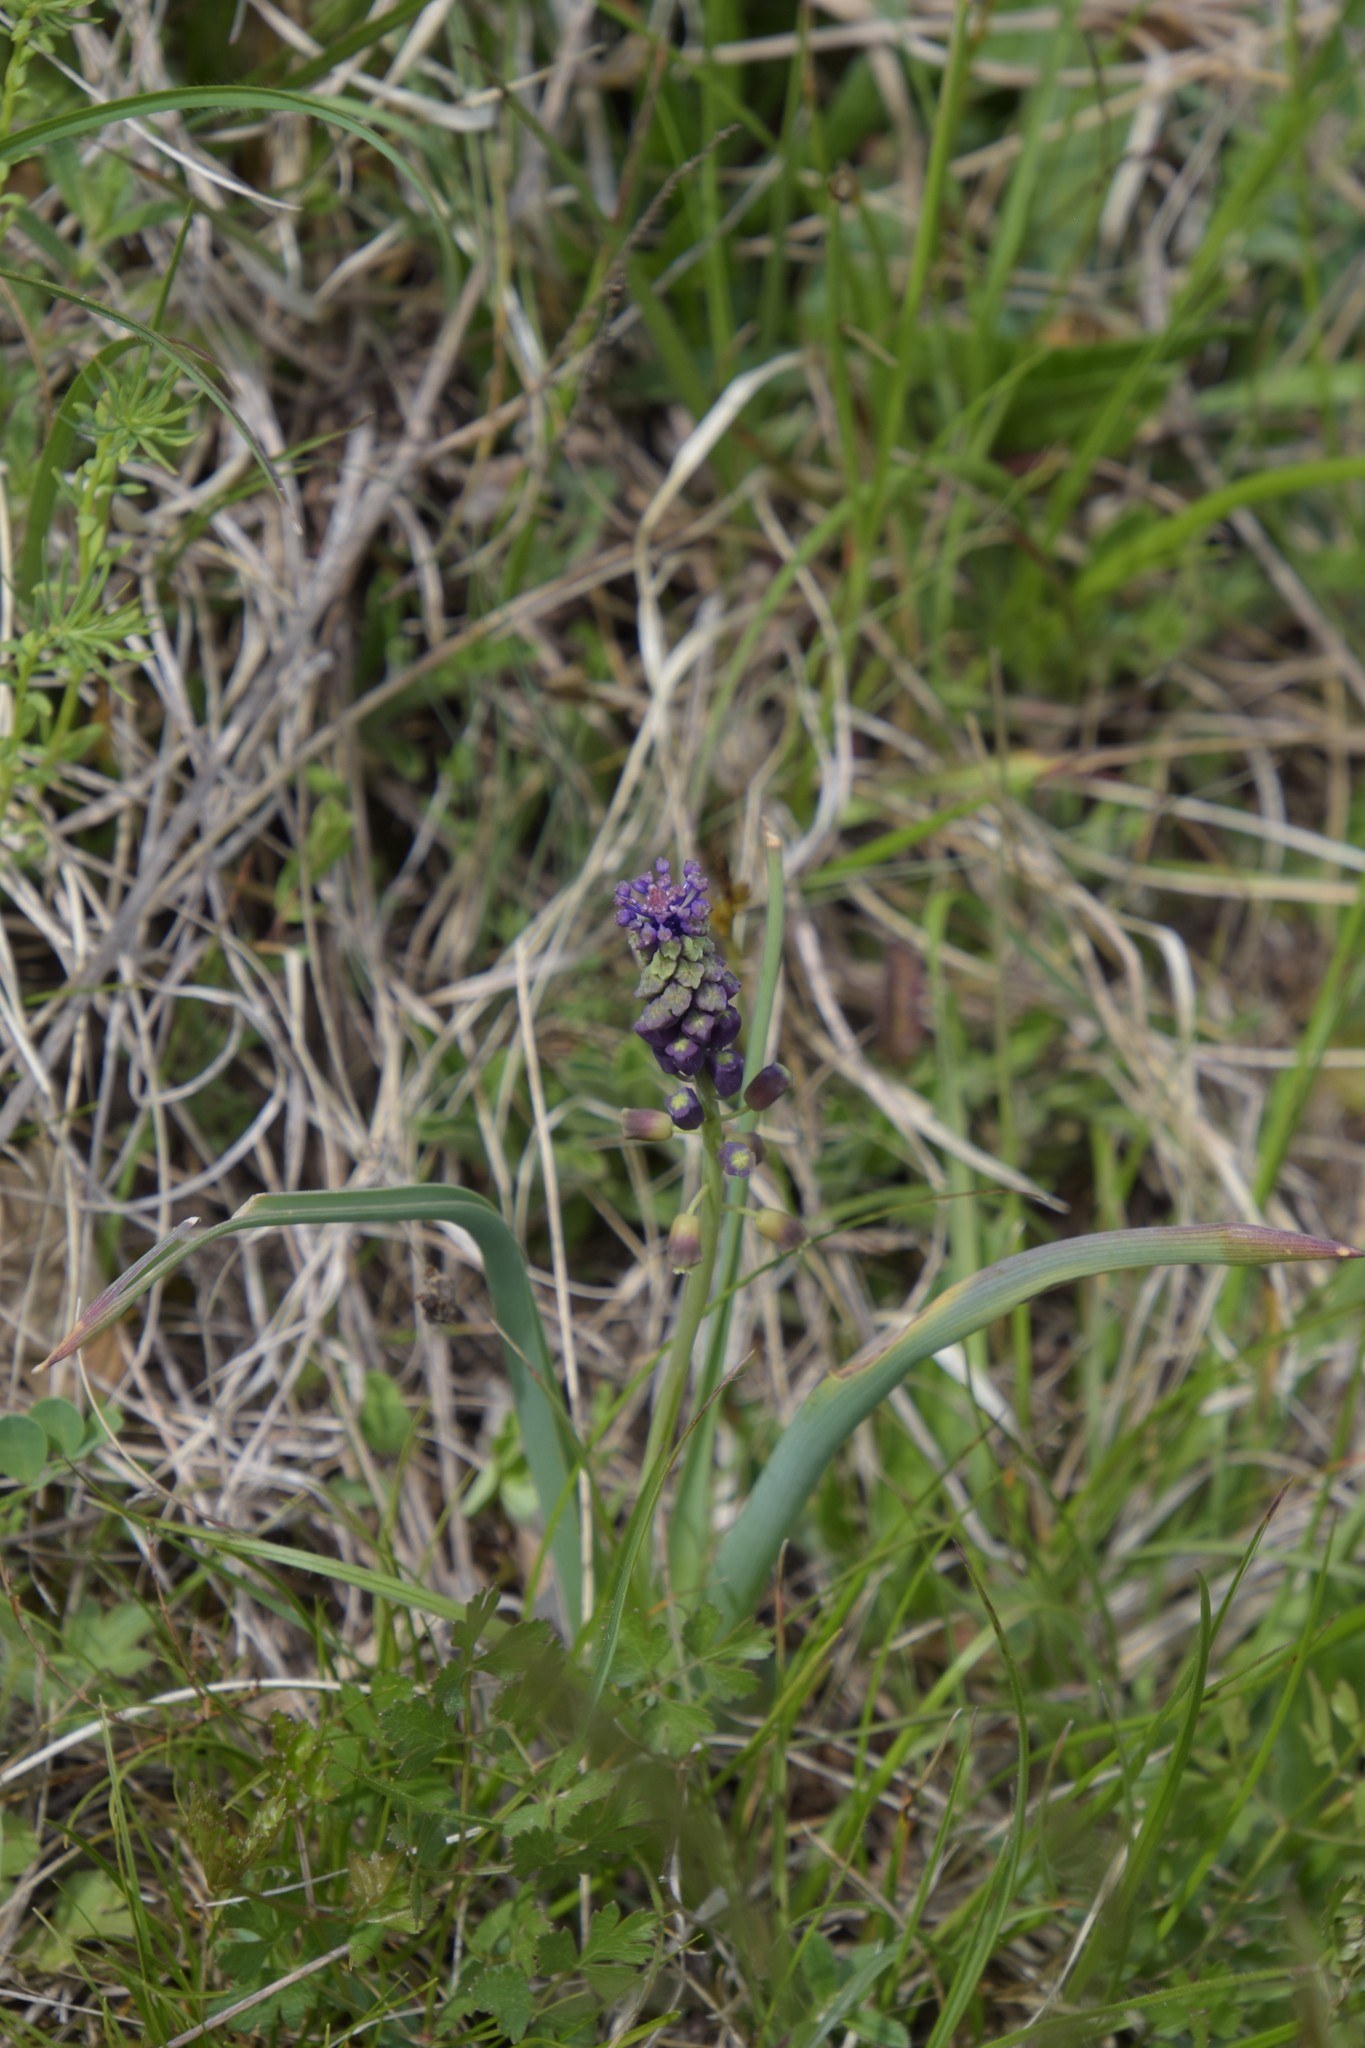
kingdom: Plantae
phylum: Tracheophyta
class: Liliopsida
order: Asparagales
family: Asparagaceae
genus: Muscari
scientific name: Muscari comosum
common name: Tassel hyacinth
